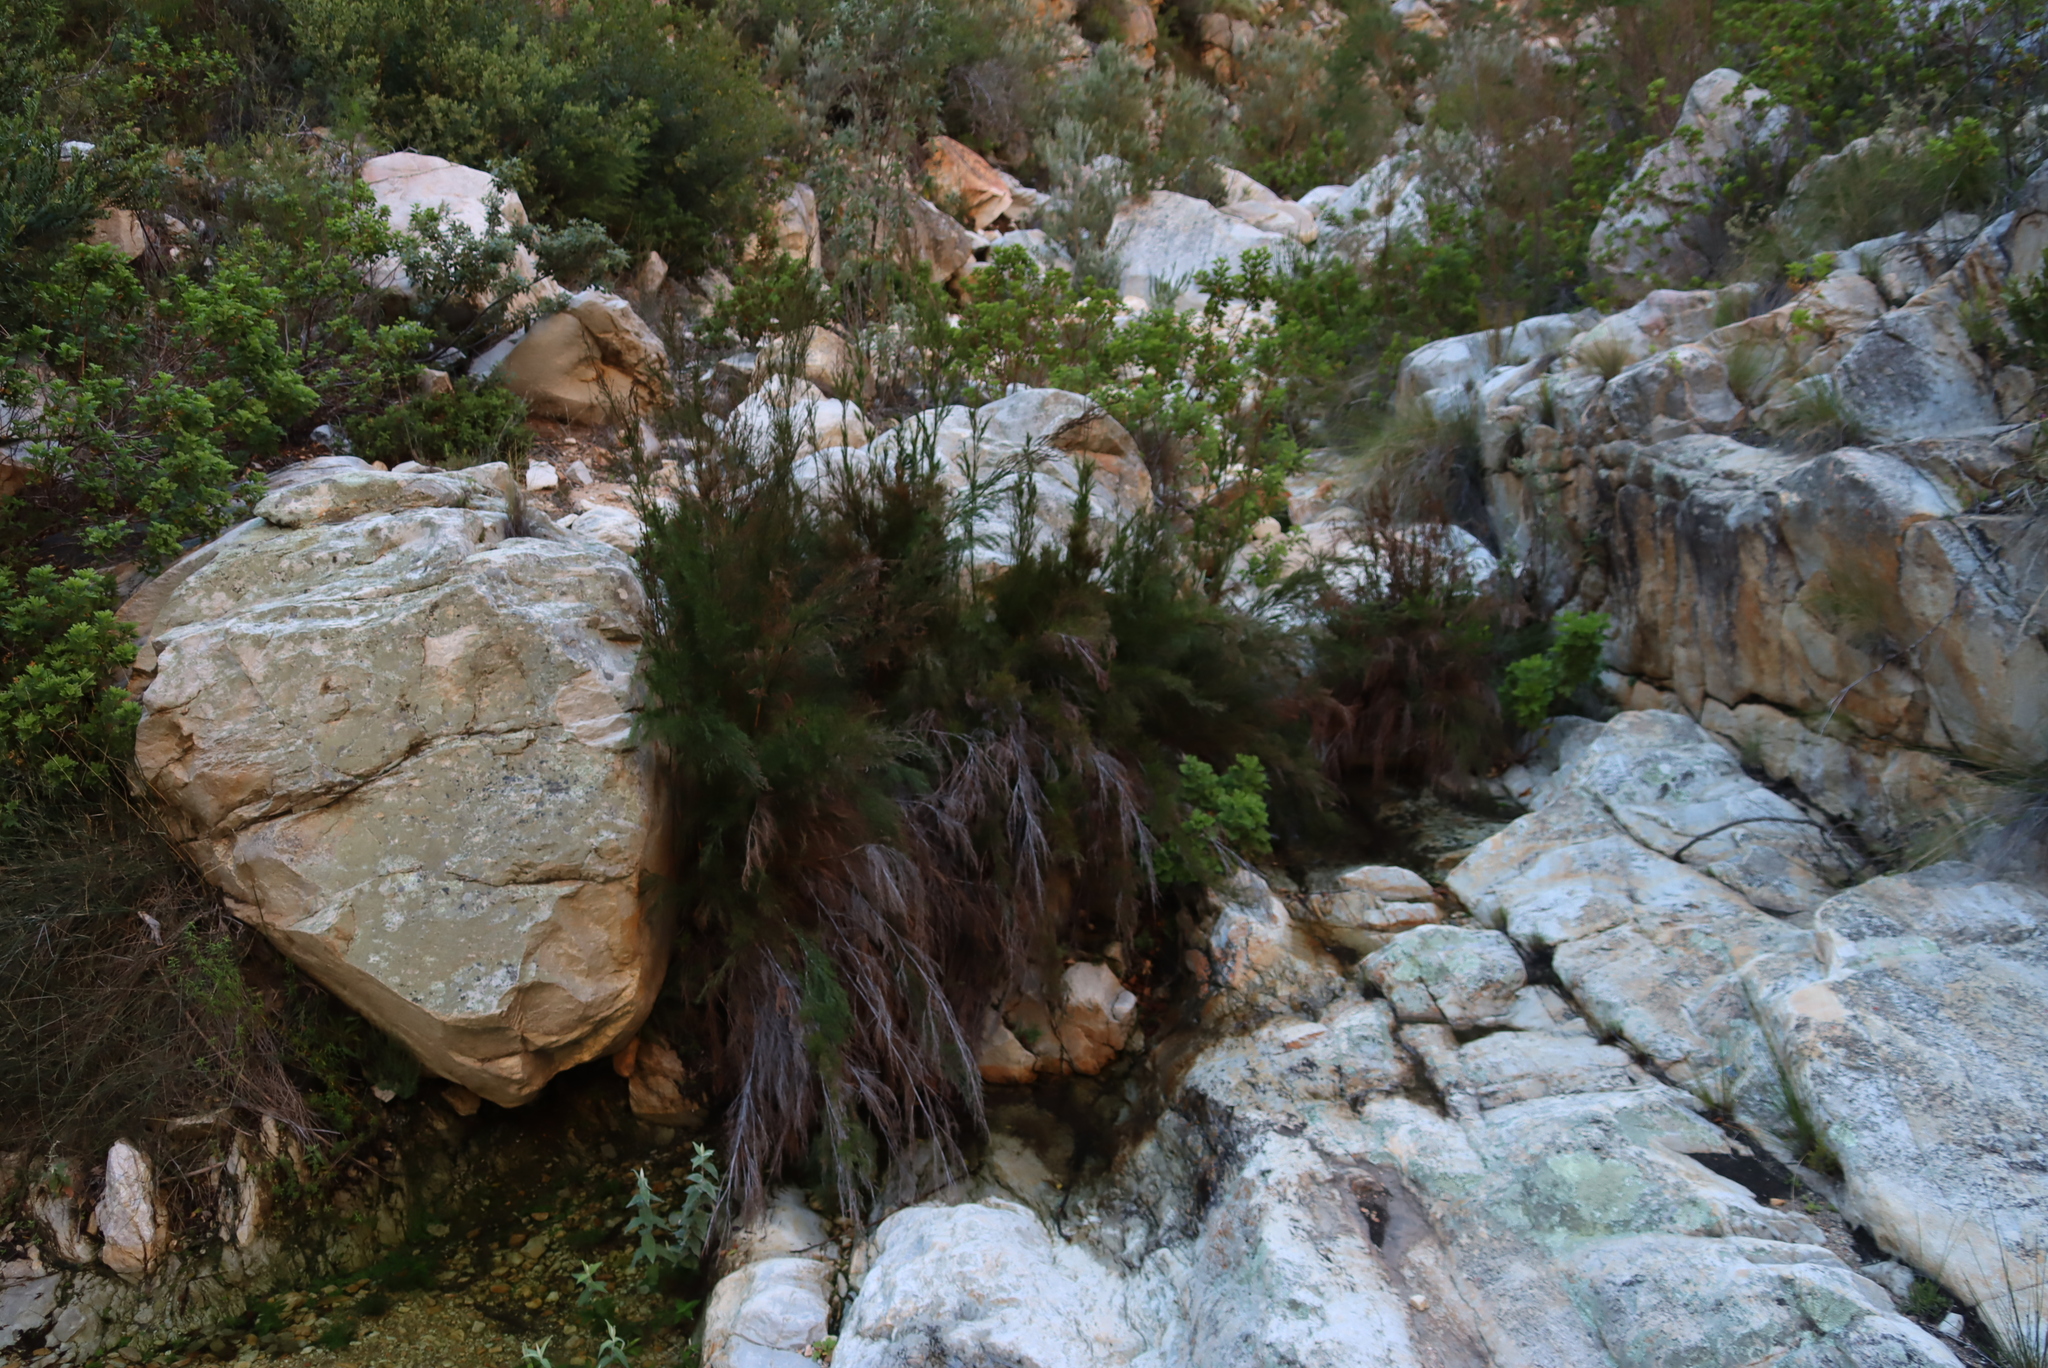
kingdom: Plantae
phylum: Tracheophyta
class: Liliopsida
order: Poales
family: Restionaceae
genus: Restio
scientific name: Restio paniculatus
